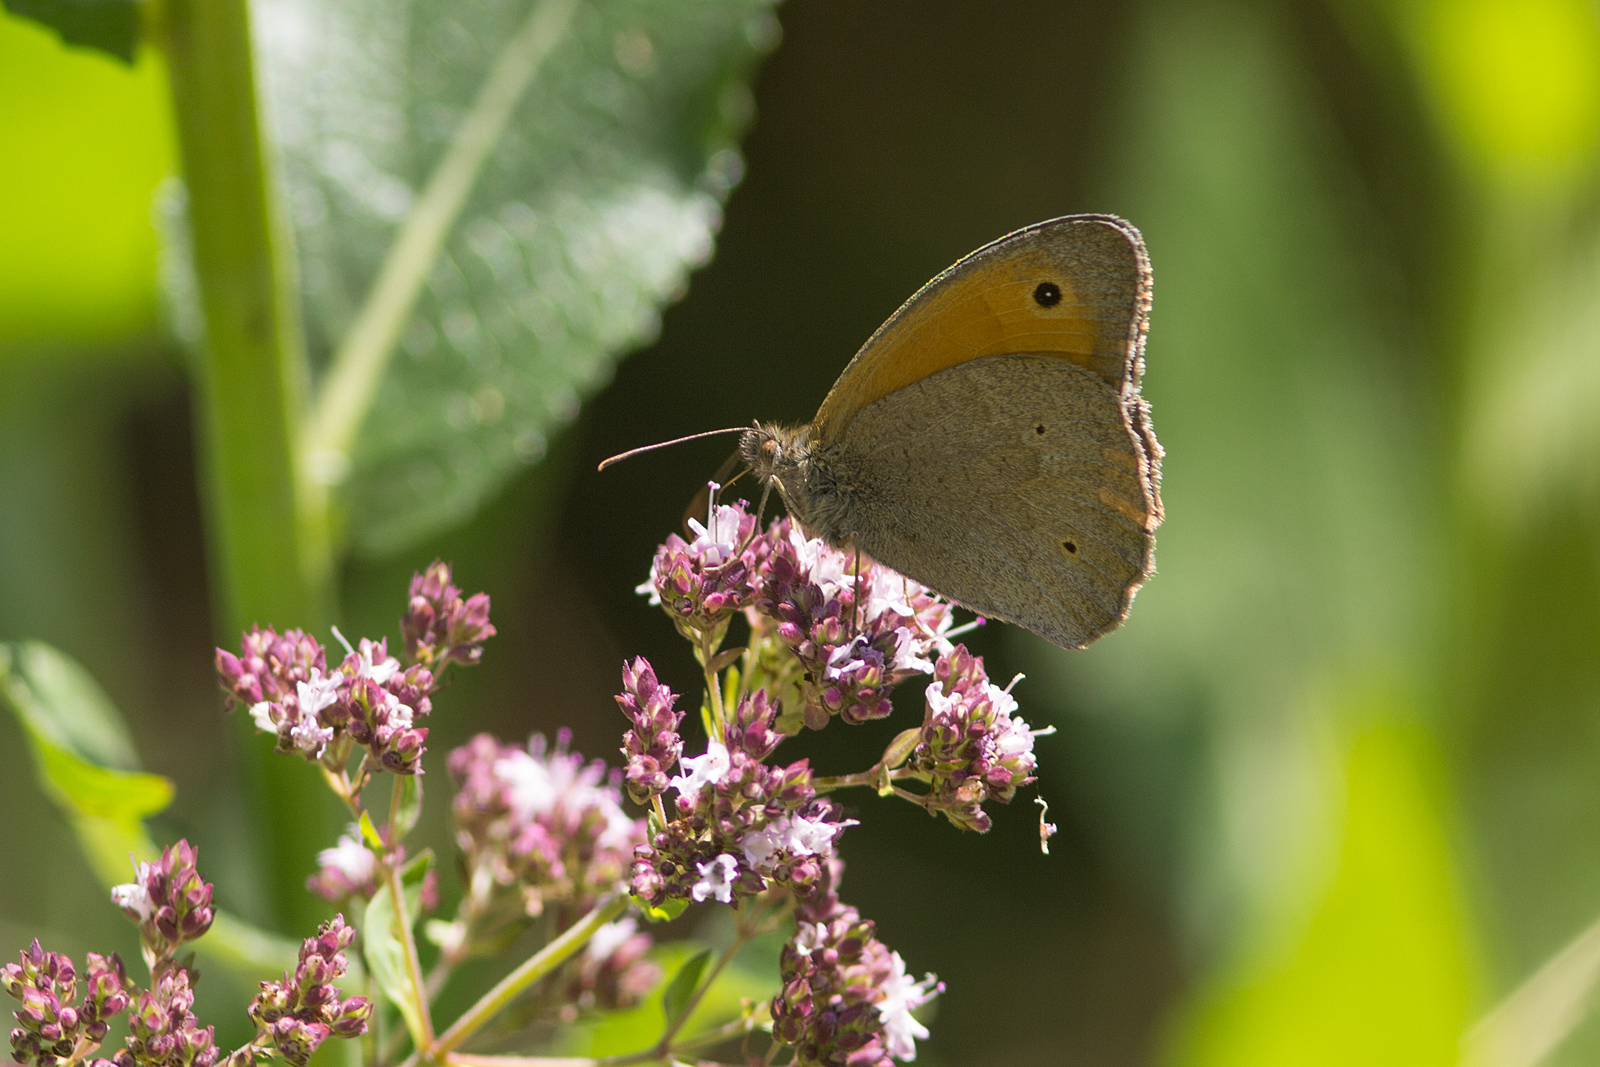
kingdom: Animalia
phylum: Arthropoda
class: Insecta
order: Lepidoptera
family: Nymphalidae
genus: Maniola
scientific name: Maniola jurtina
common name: Meadow brown
